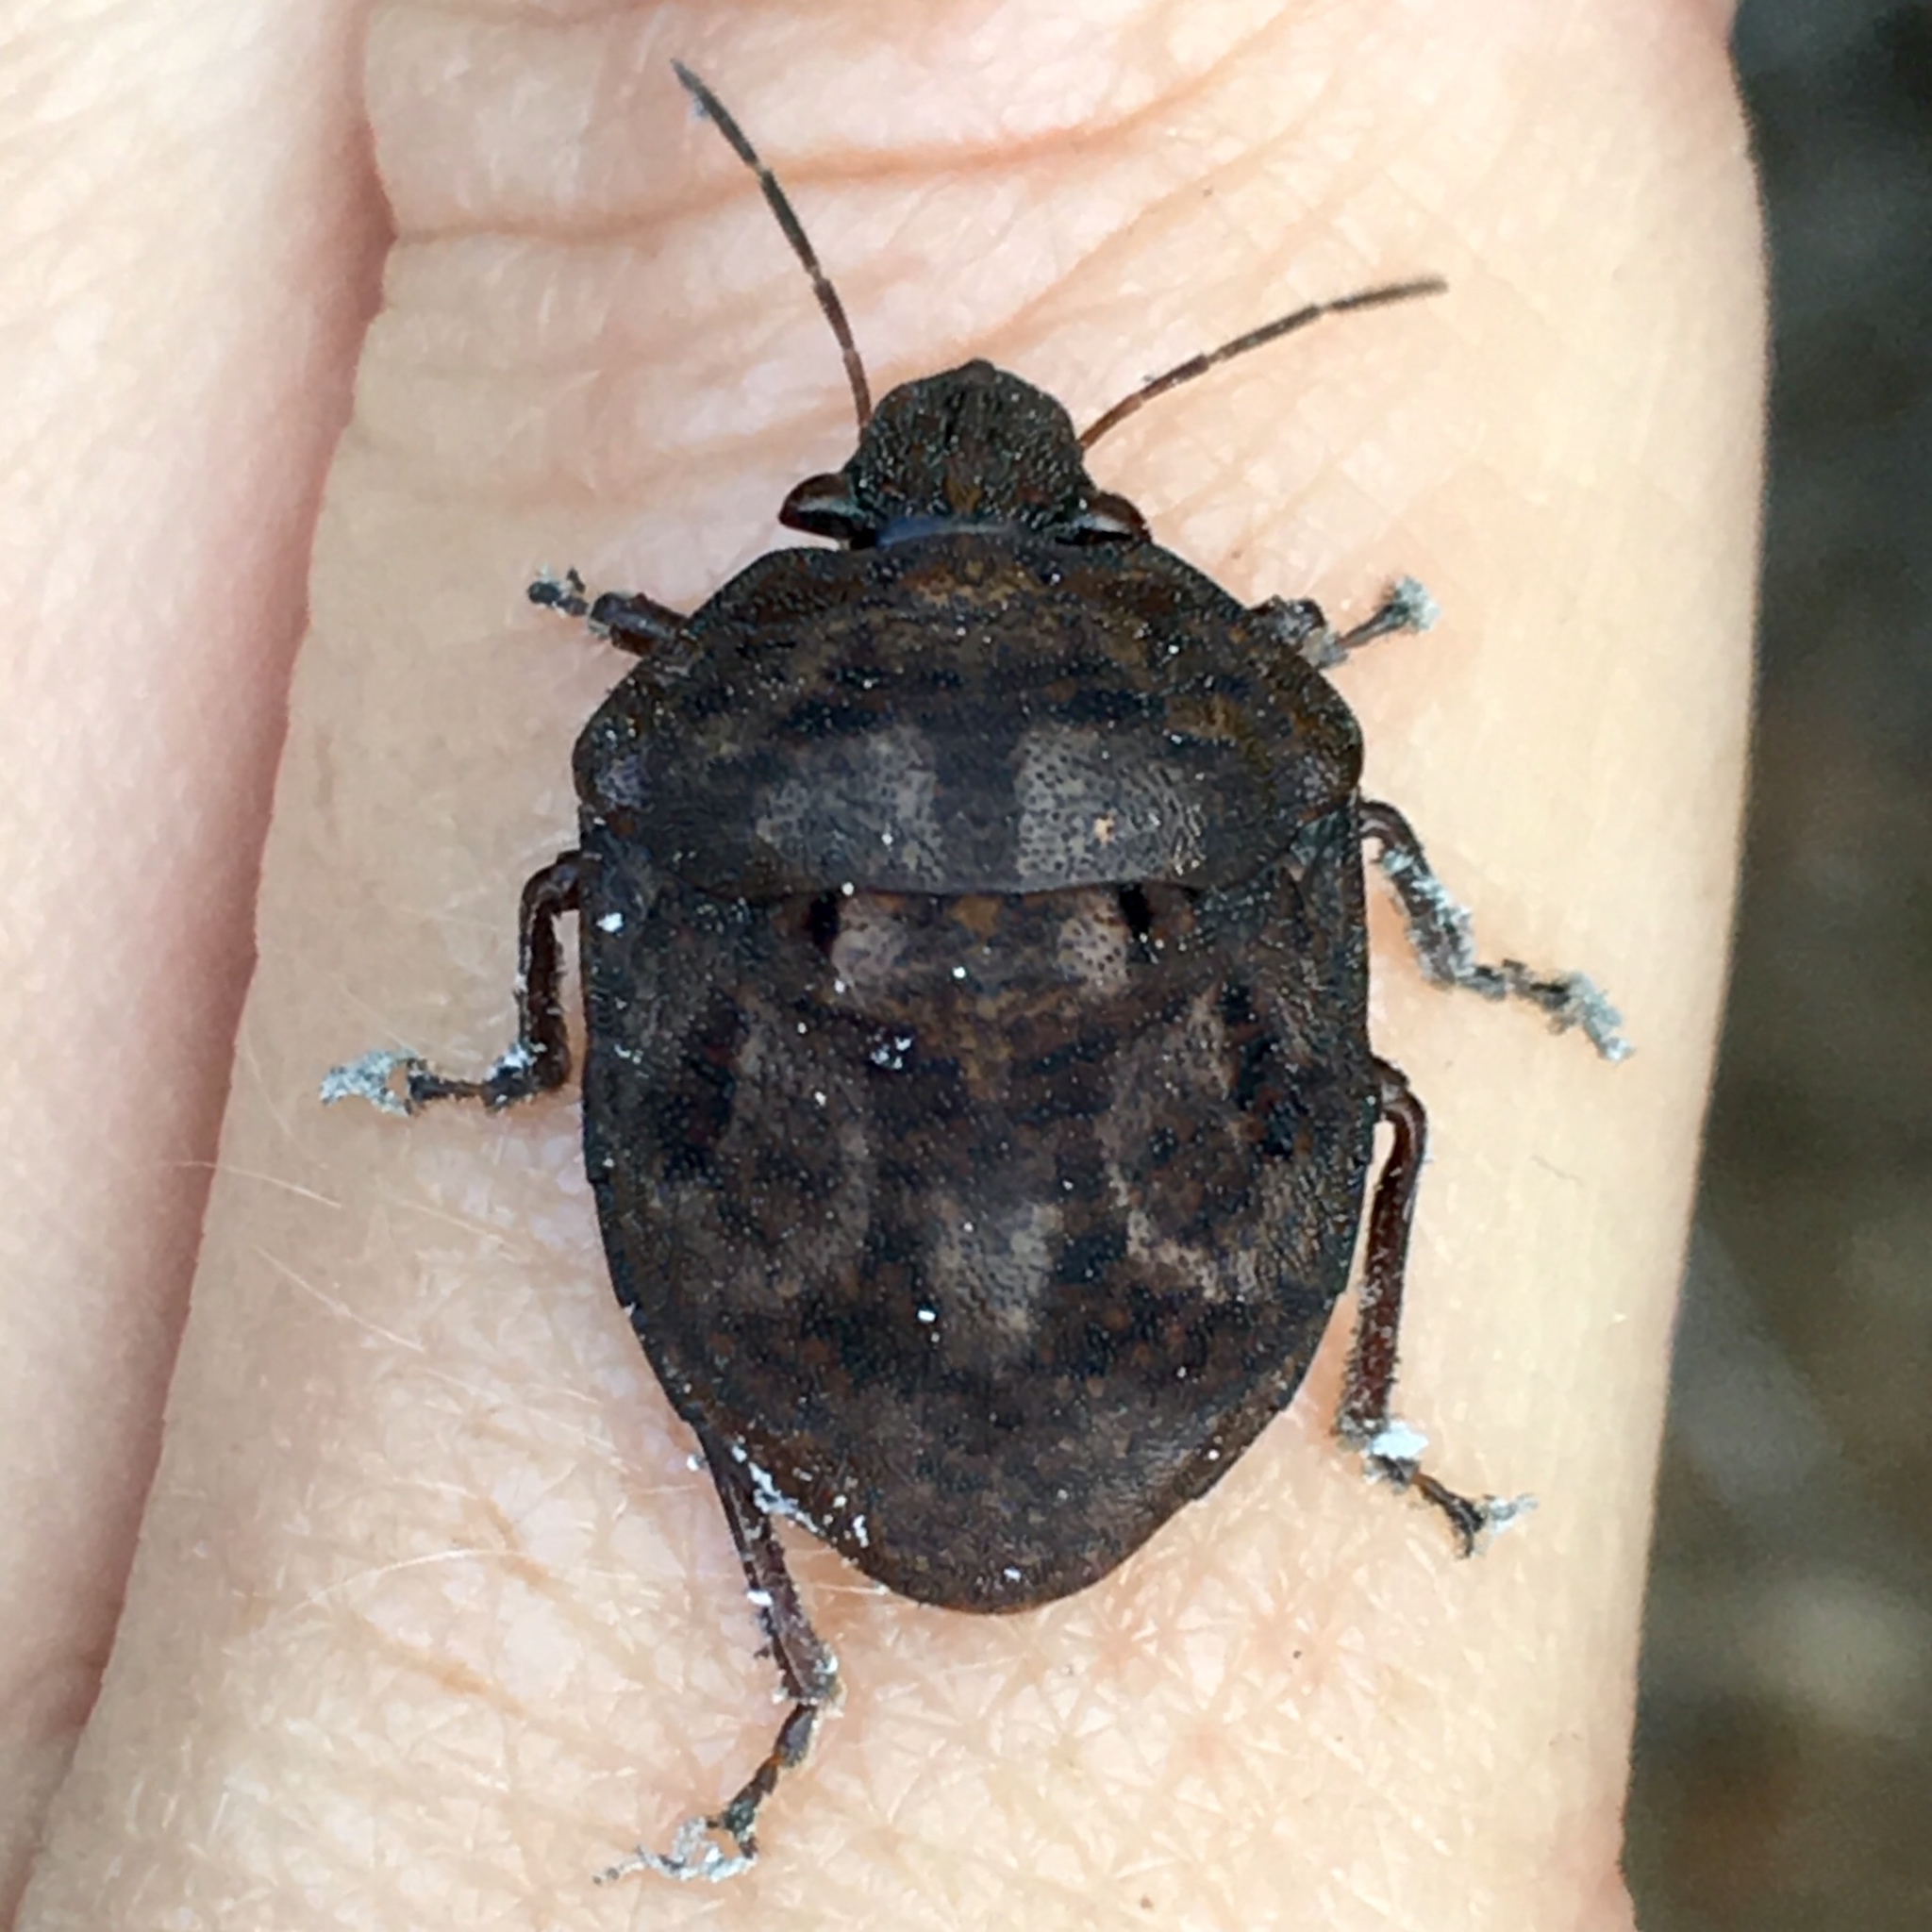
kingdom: Animalia
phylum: Arthropoda
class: Insecta
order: Hemiptera
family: Scutelleridae
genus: Tetyra
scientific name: Tetyra bipunctata
